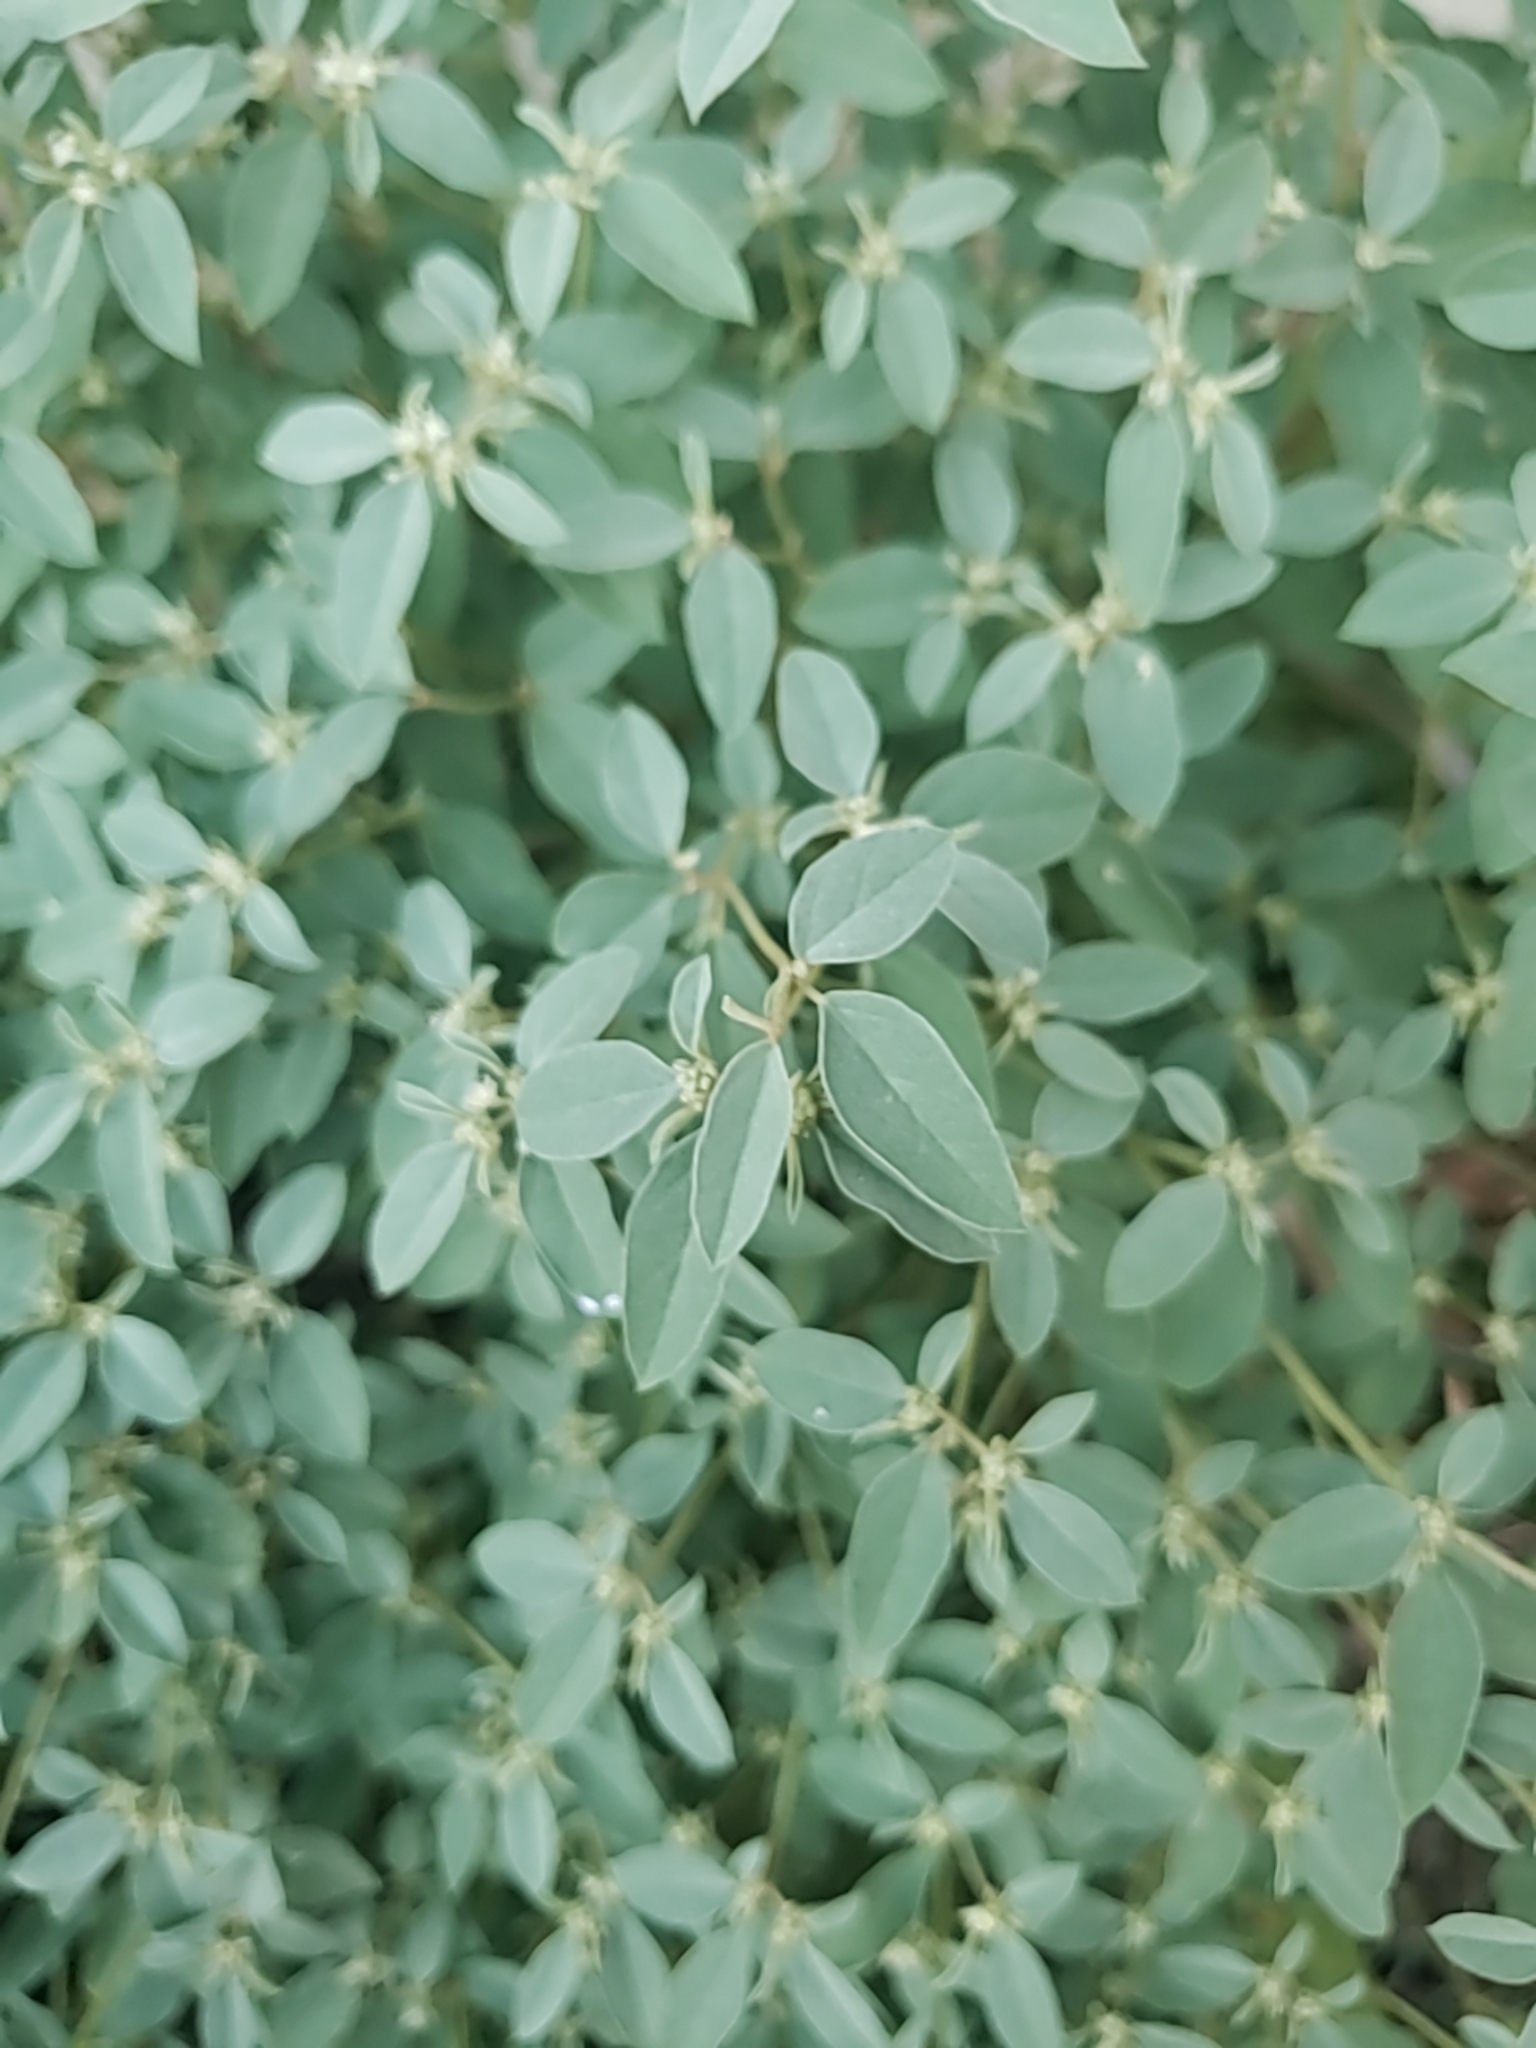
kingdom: Plantae
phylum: Tracheophyta
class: Magnoliopsida
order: Malpighiales
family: Euphorbiaceae
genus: Croton
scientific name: Croton monanthogynus
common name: One-seed croton
